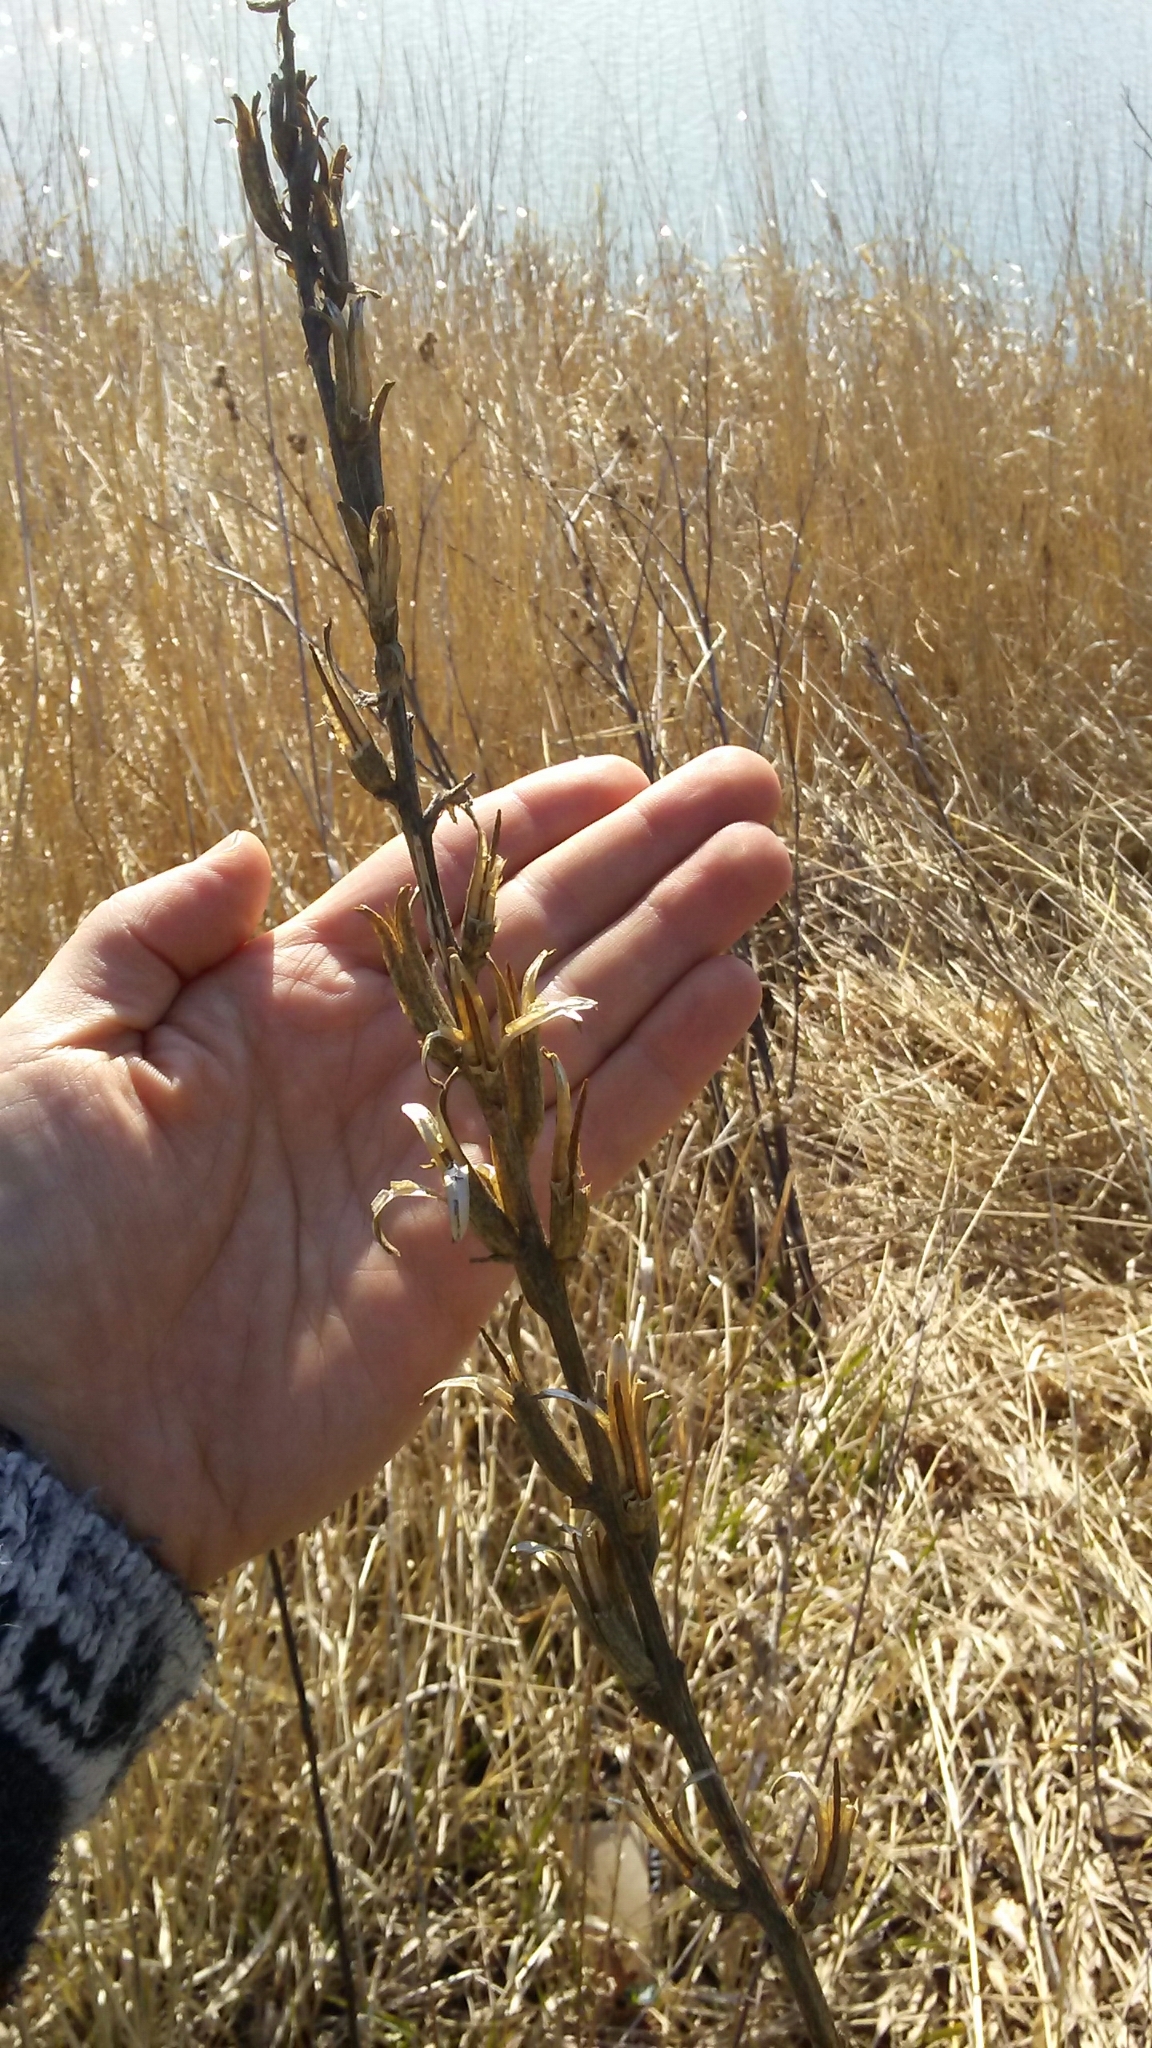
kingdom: Plantae
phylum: Tracheophyta
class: Magnoliopsida
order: Myrtales
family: Onagraceae
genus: Oenothera
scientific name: Oenothera biennis
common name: Common evening-primrose
